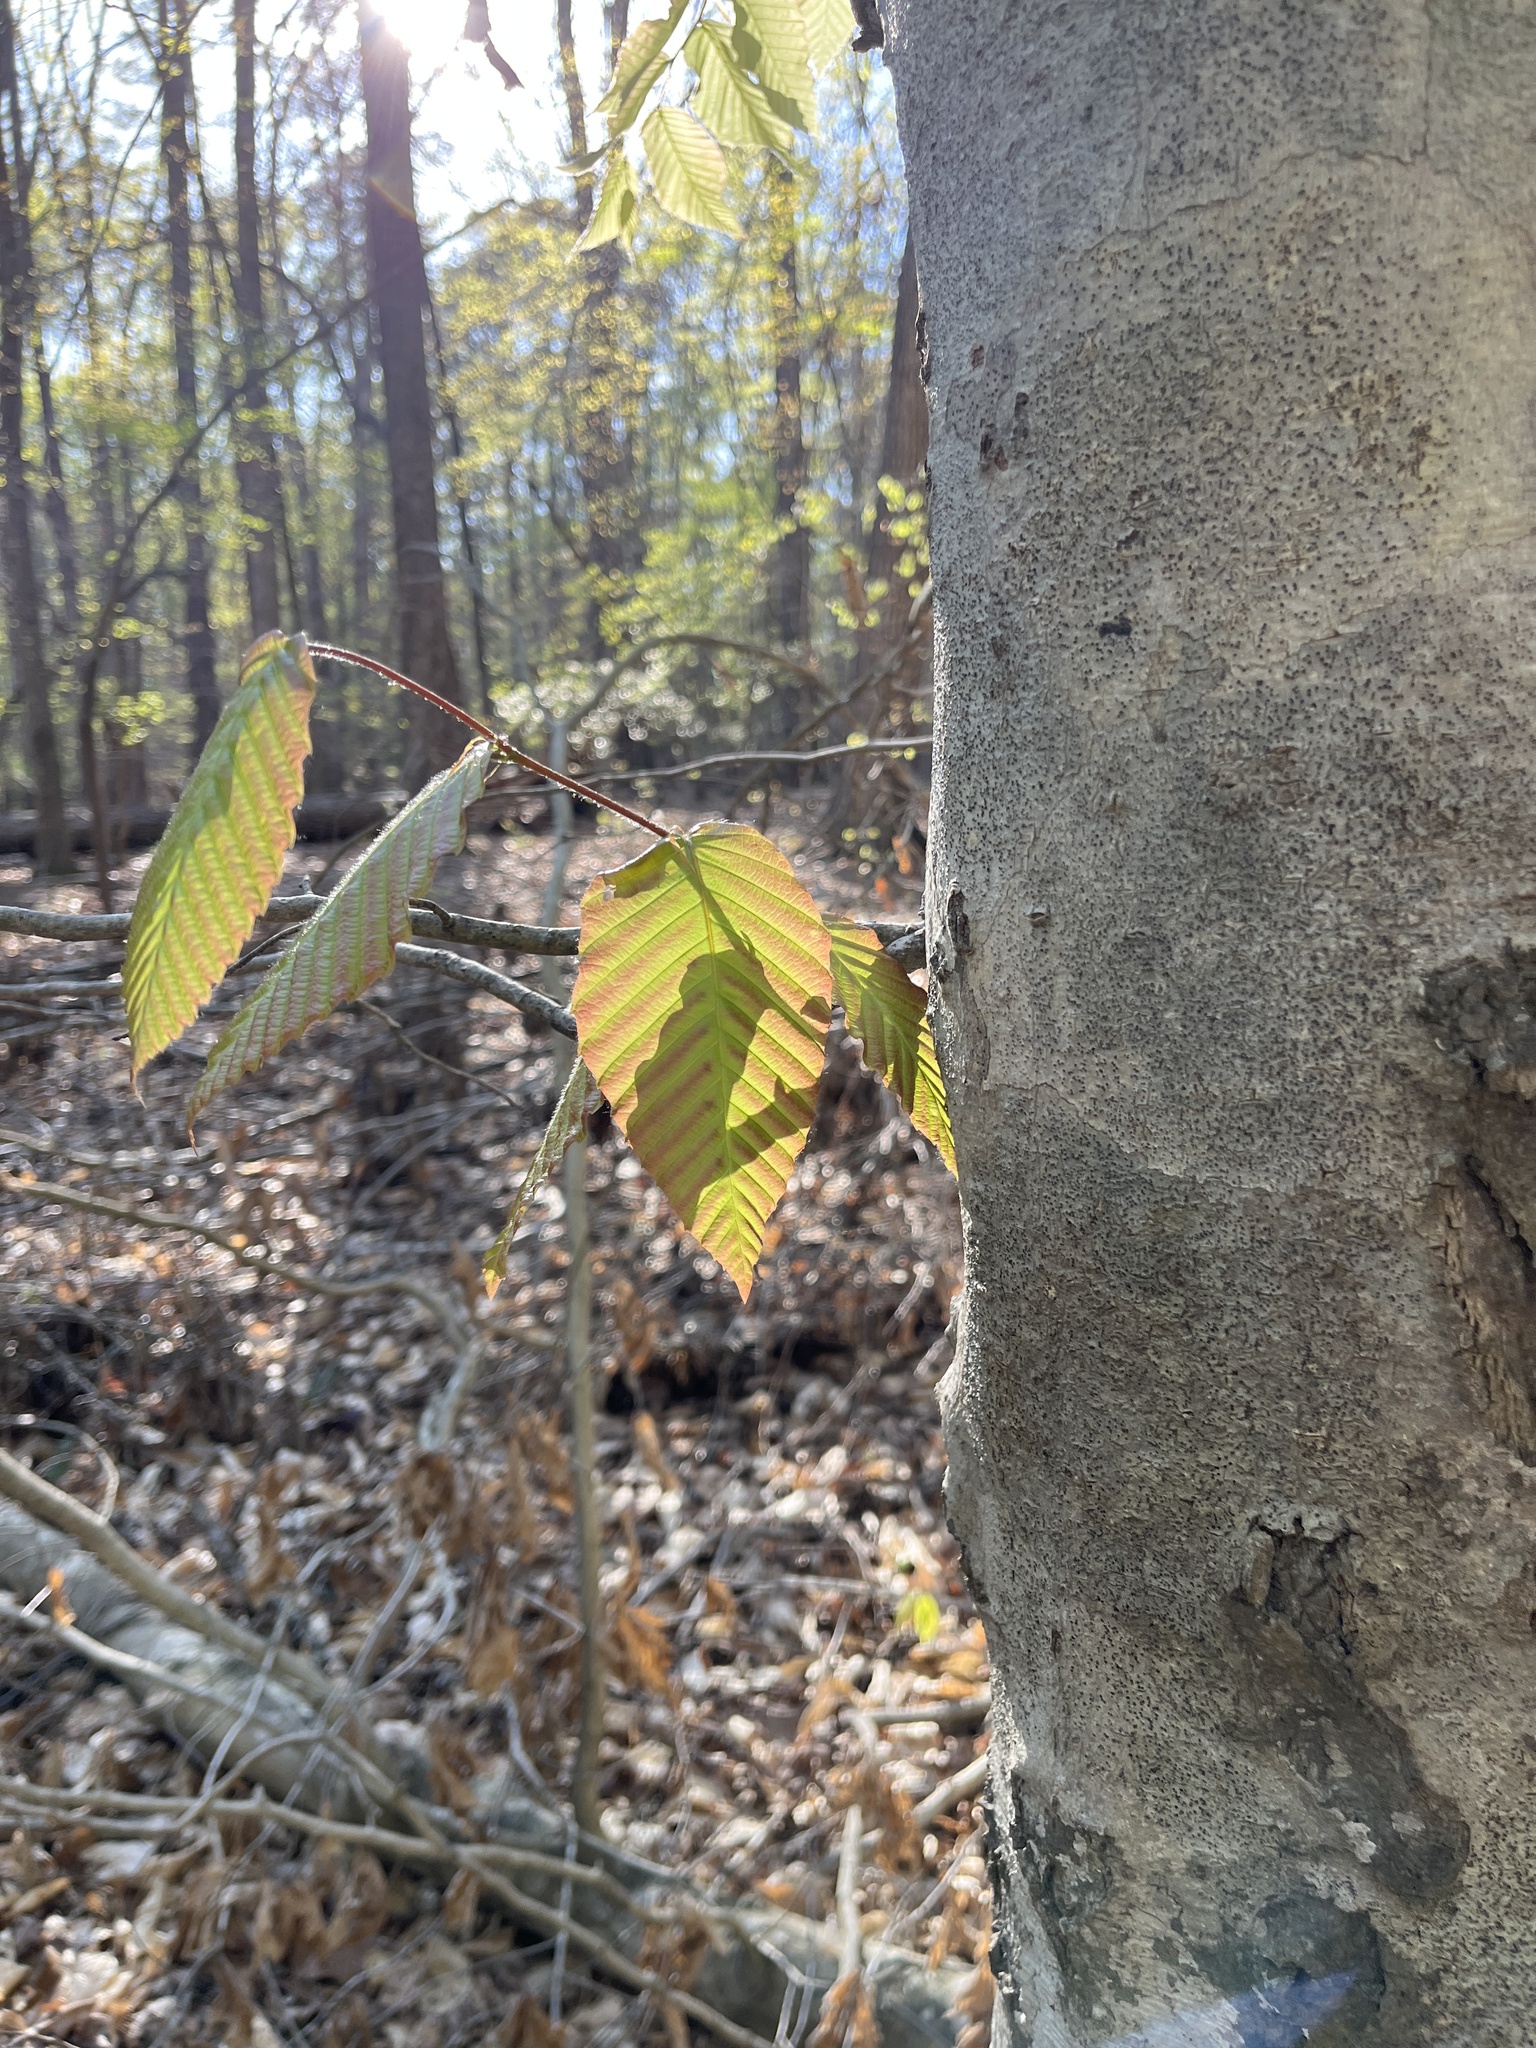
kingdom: Plantae
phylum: Tracheophyta
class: Magnoliopsida
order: Fagales
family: Fagaceae
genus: Fagus
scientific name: Fagus grandifolia
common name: American beech
